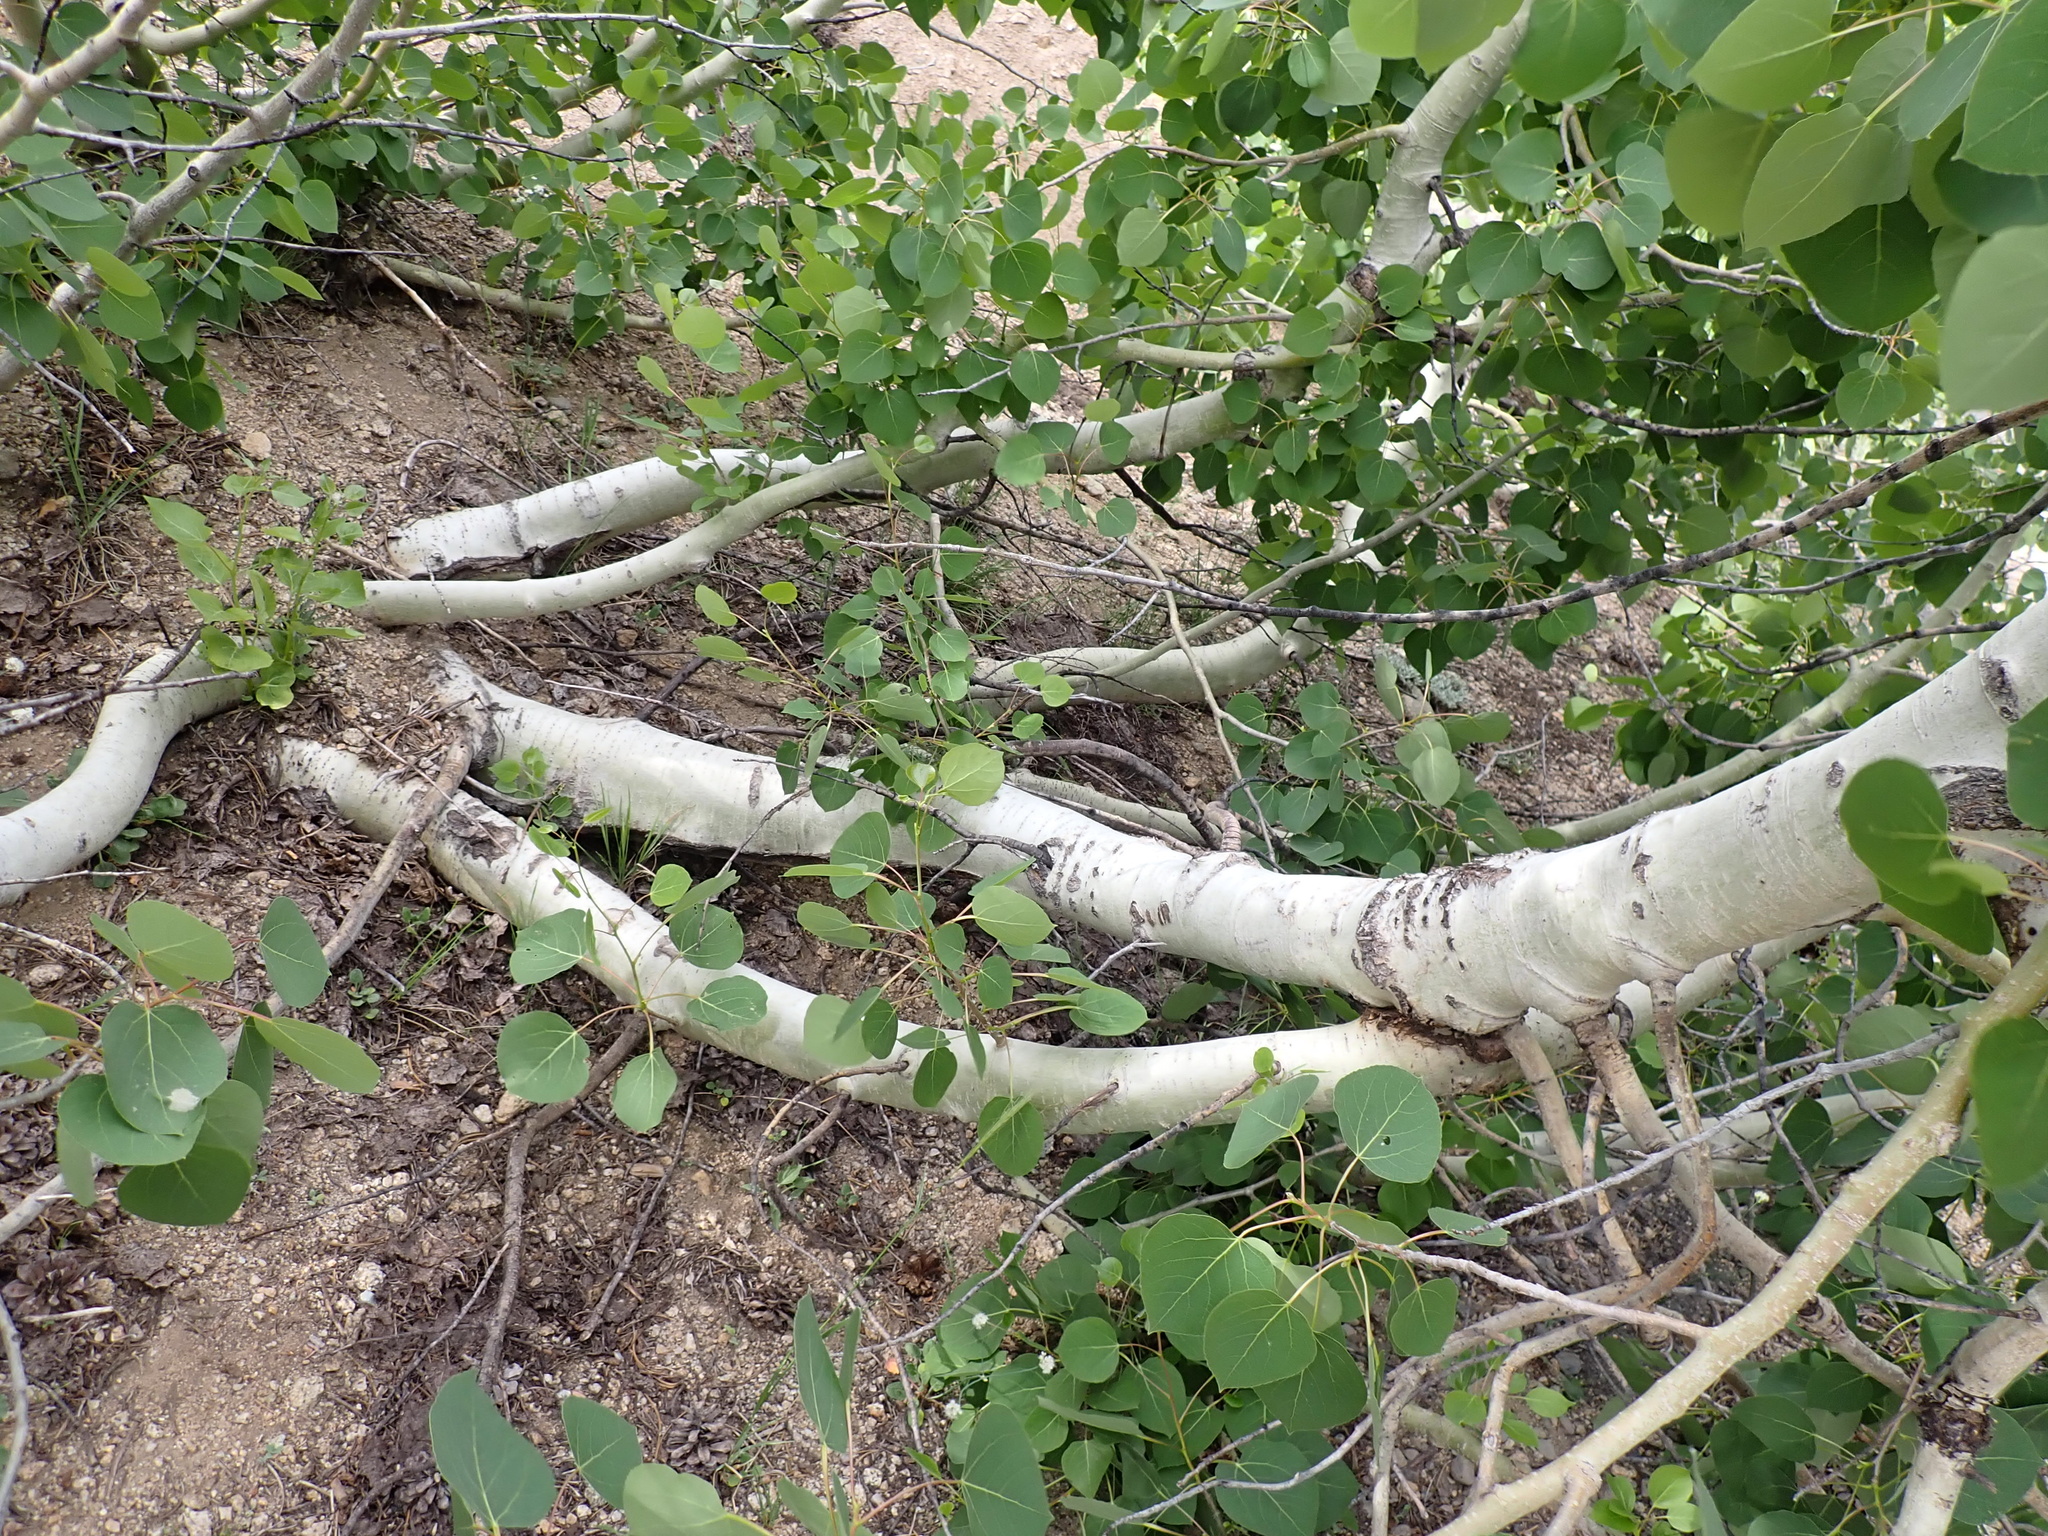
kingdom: Plantae
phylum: Tracheophyta
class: Magnoliopsida
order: Malpighiales
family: Salicaceae
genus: Populus
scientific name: Populus tremuloides
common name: Quaking aspen
